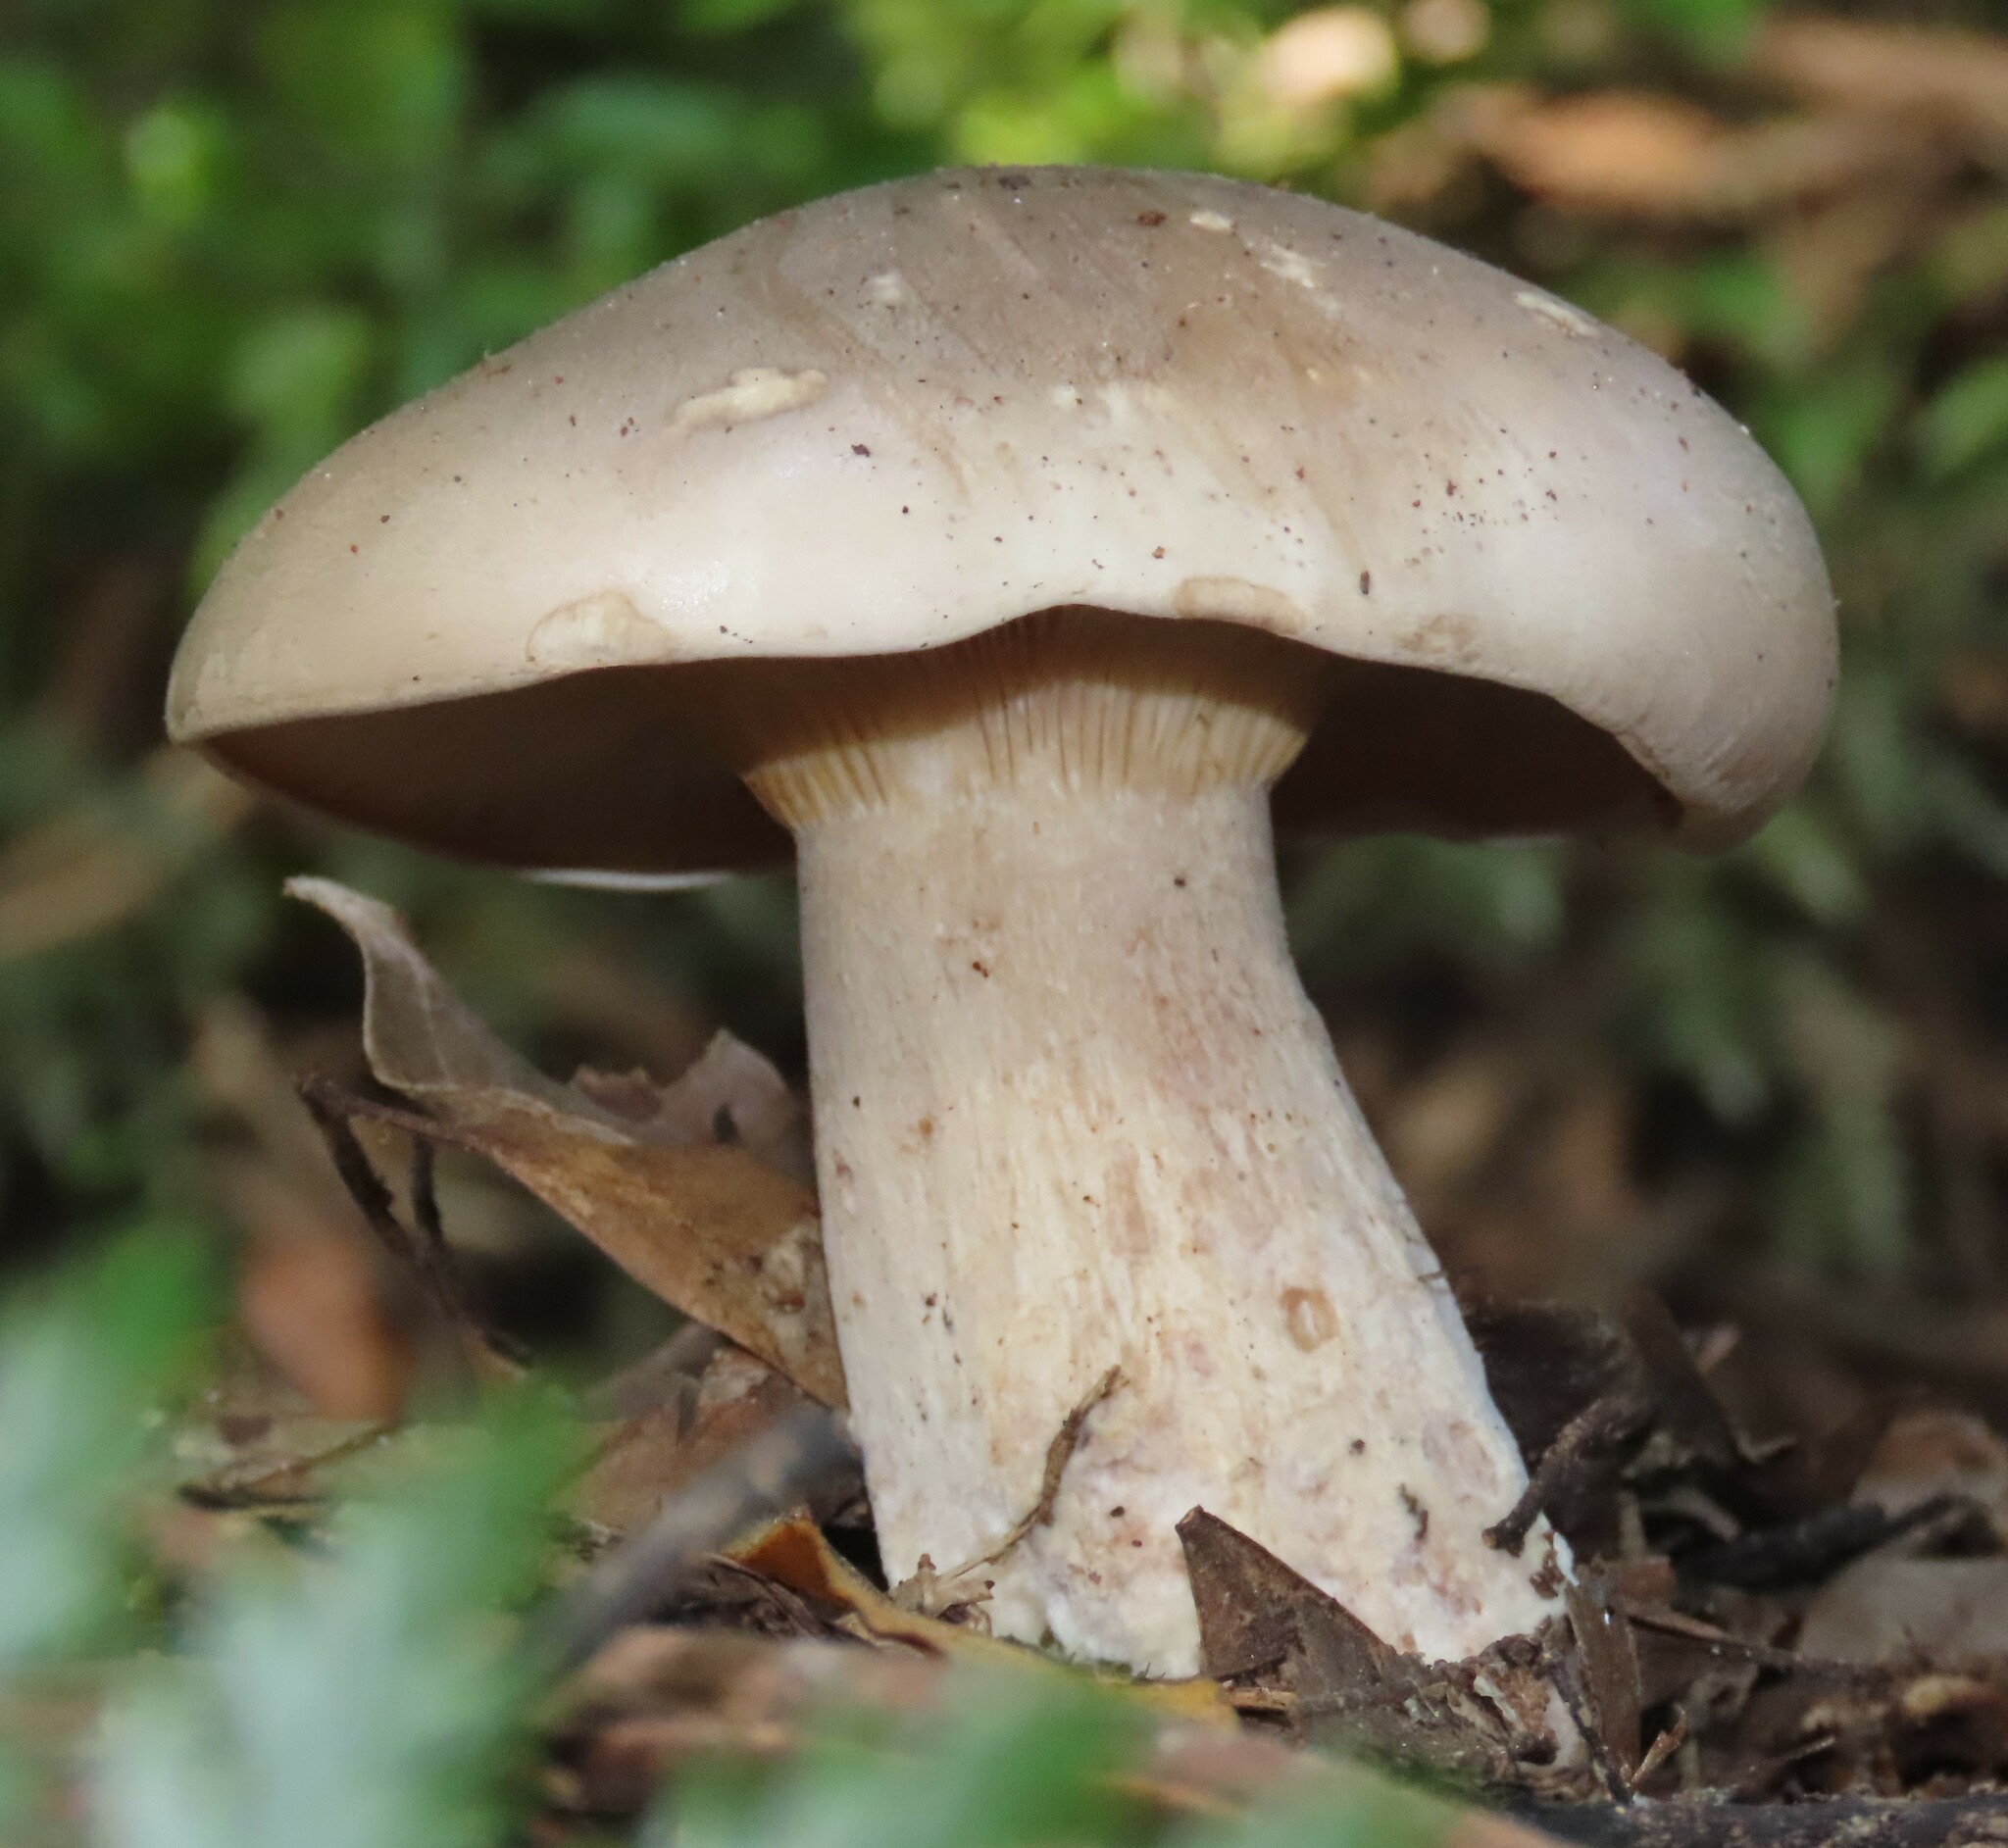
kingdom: Fungi
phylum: Basidiomycota
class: Agaricomycetes
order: Agaricales
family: Tricholomataceae
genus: Clitocybe
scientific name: Clitocybe nebularis
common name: Clouded agaric
